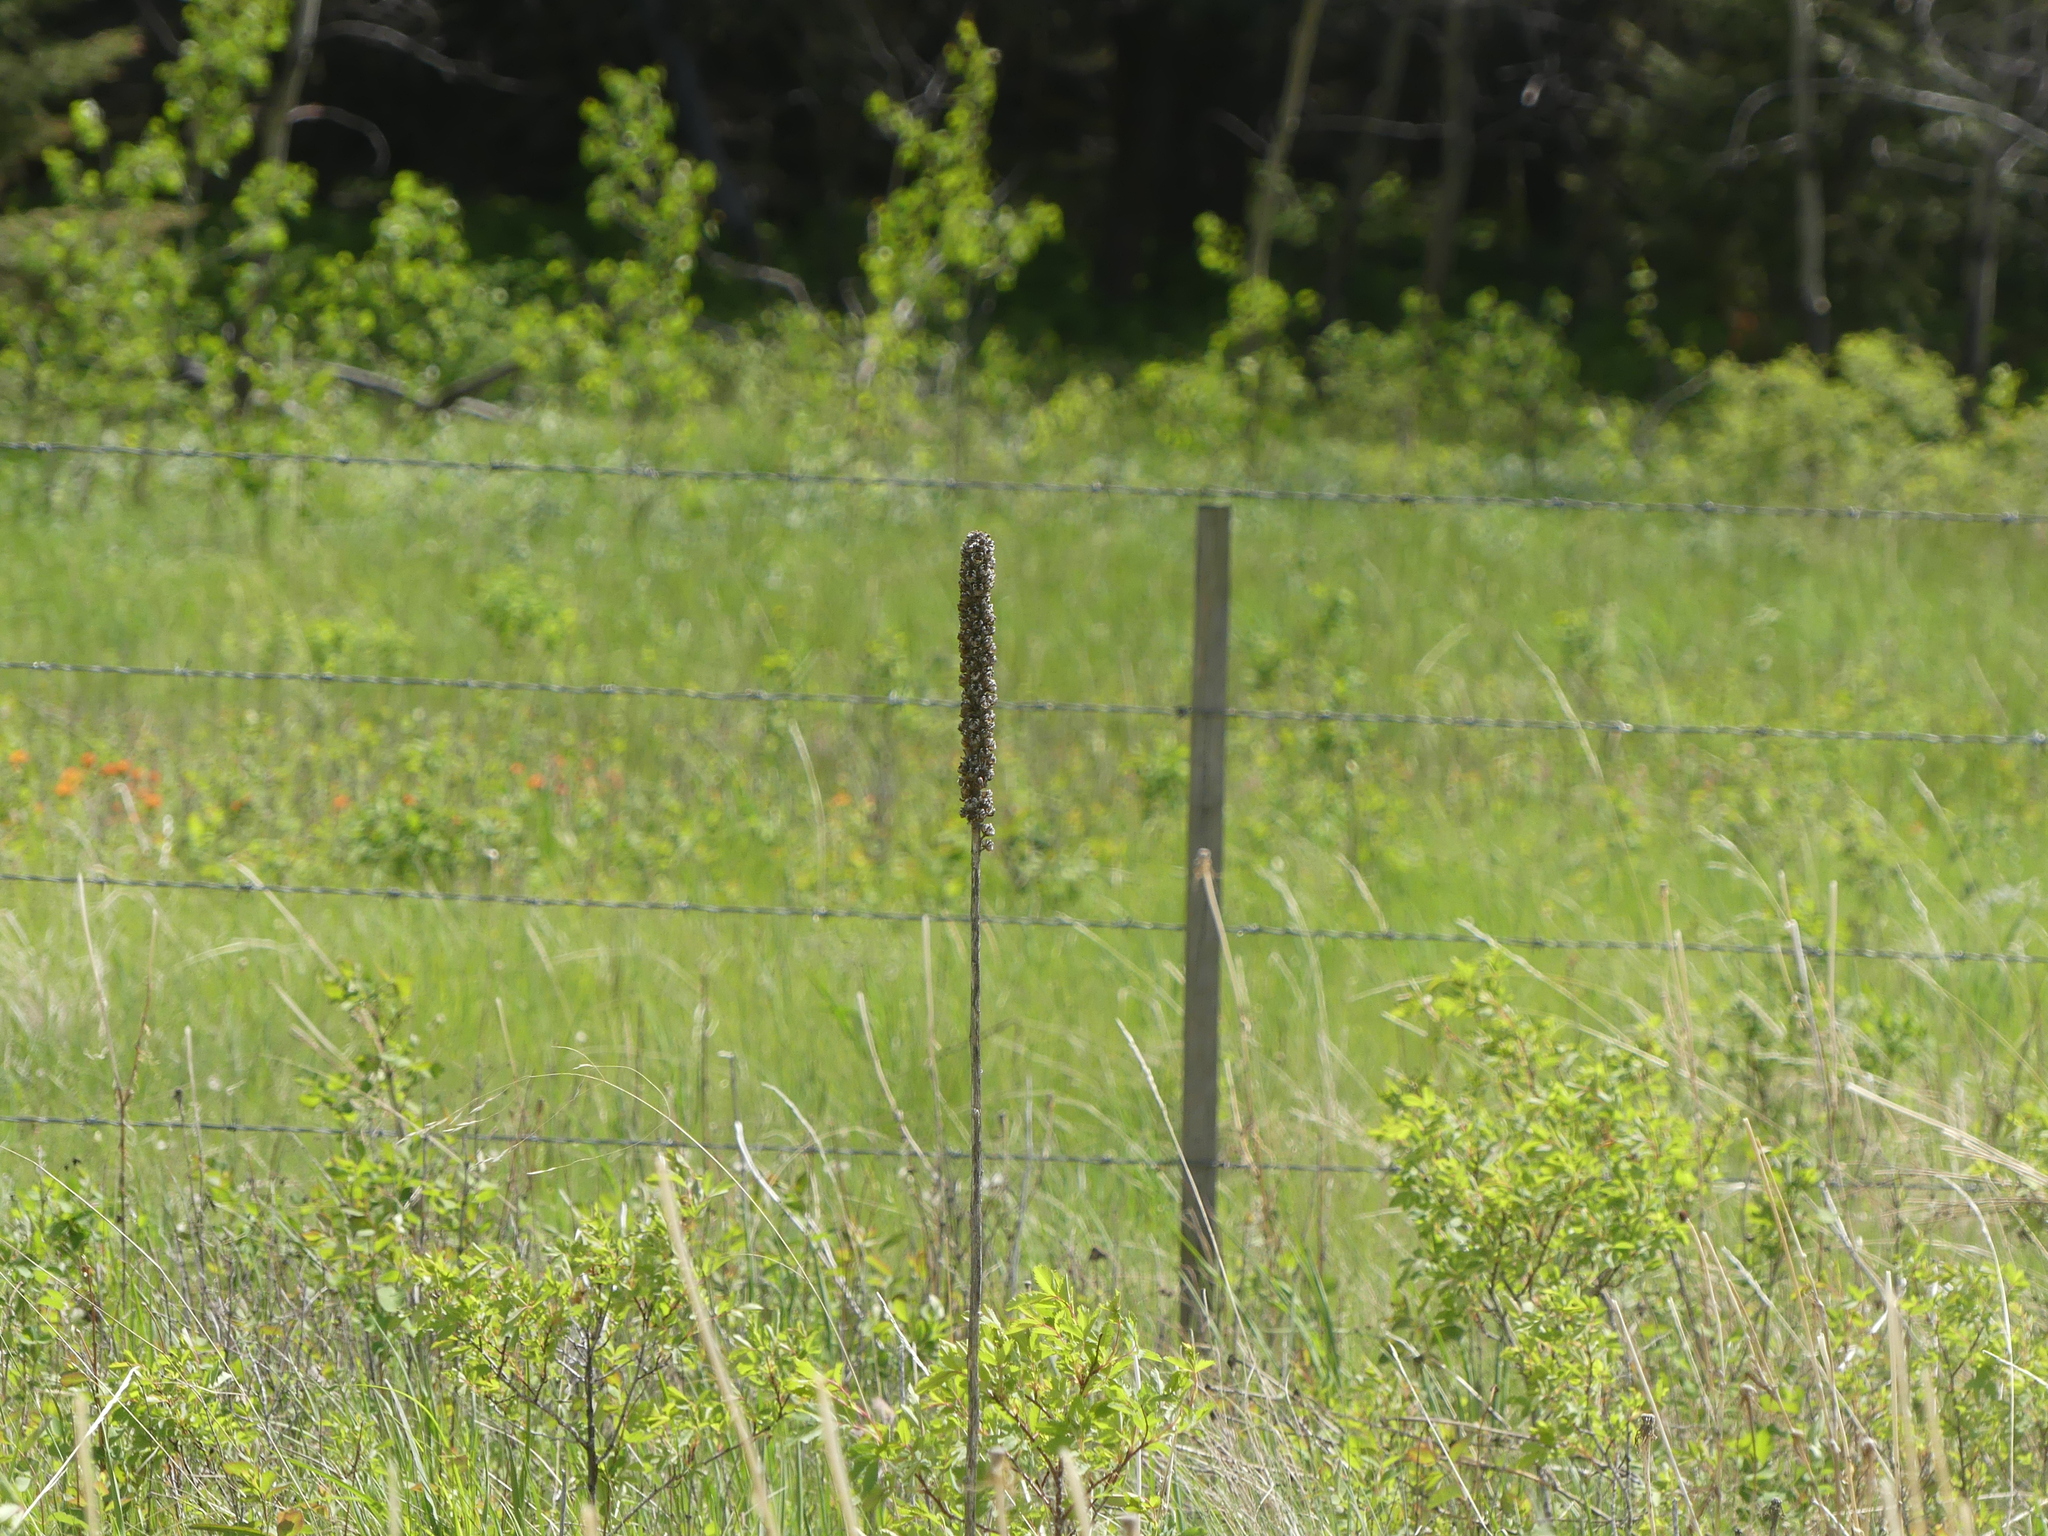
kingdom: Plantae
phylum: Tracheophyta
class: Magnoliopsida
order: Lamiales
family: Scrophulariaceae
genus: Verbascum
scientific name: Verbascum thapsus
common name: Common mullein
